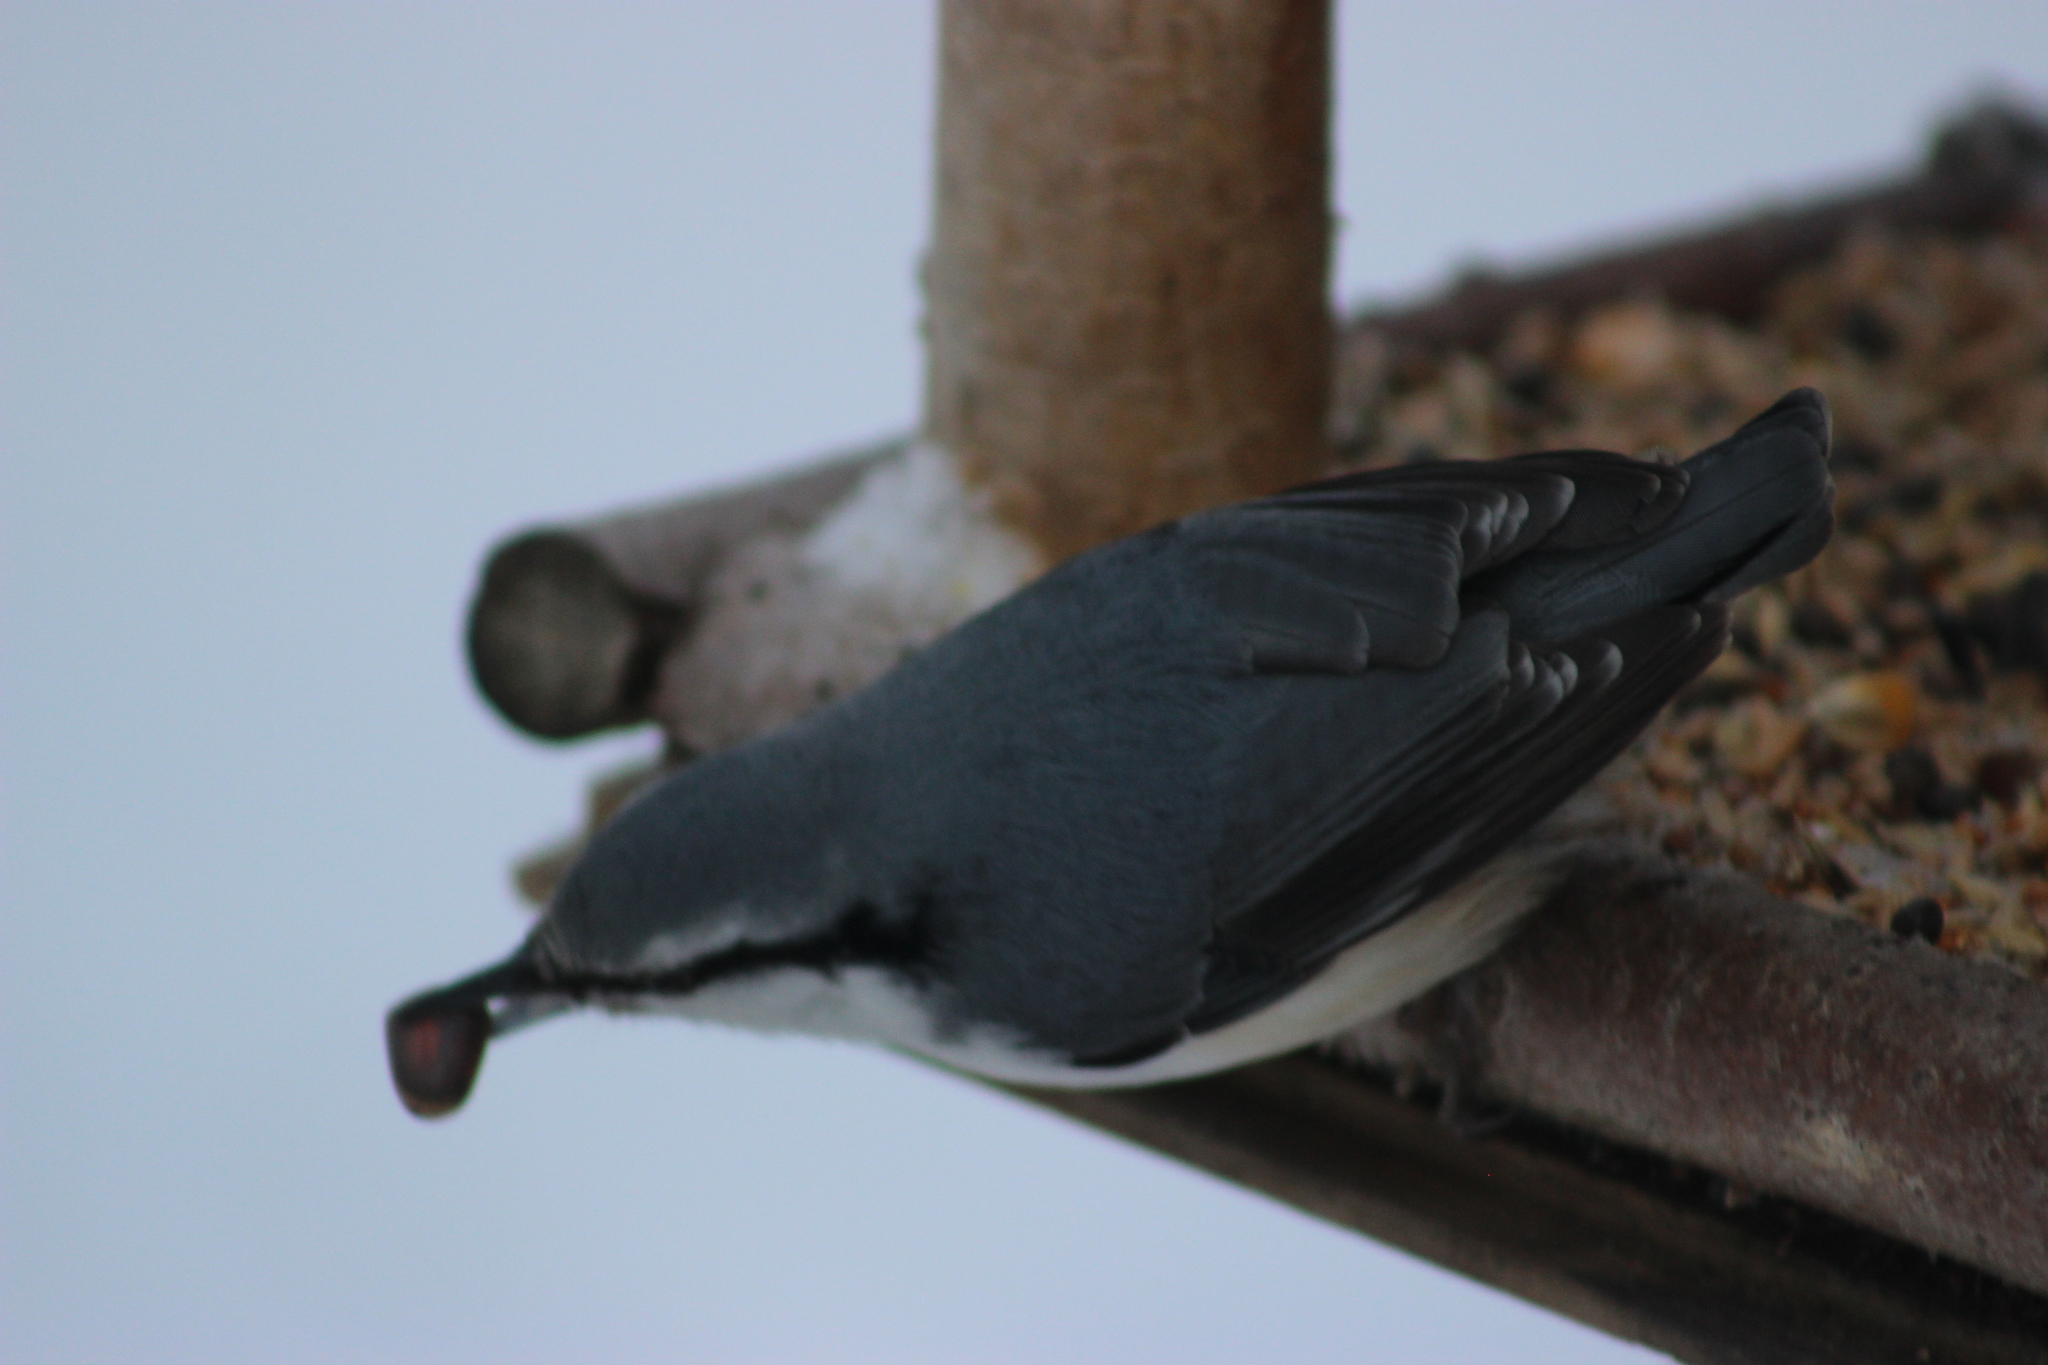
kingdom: Animalia
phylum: Chordata
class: Aves
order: Passeriformes
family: Sittidae
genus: Sitta
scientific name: Sitta europaea
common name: Eurasian nuthatch
